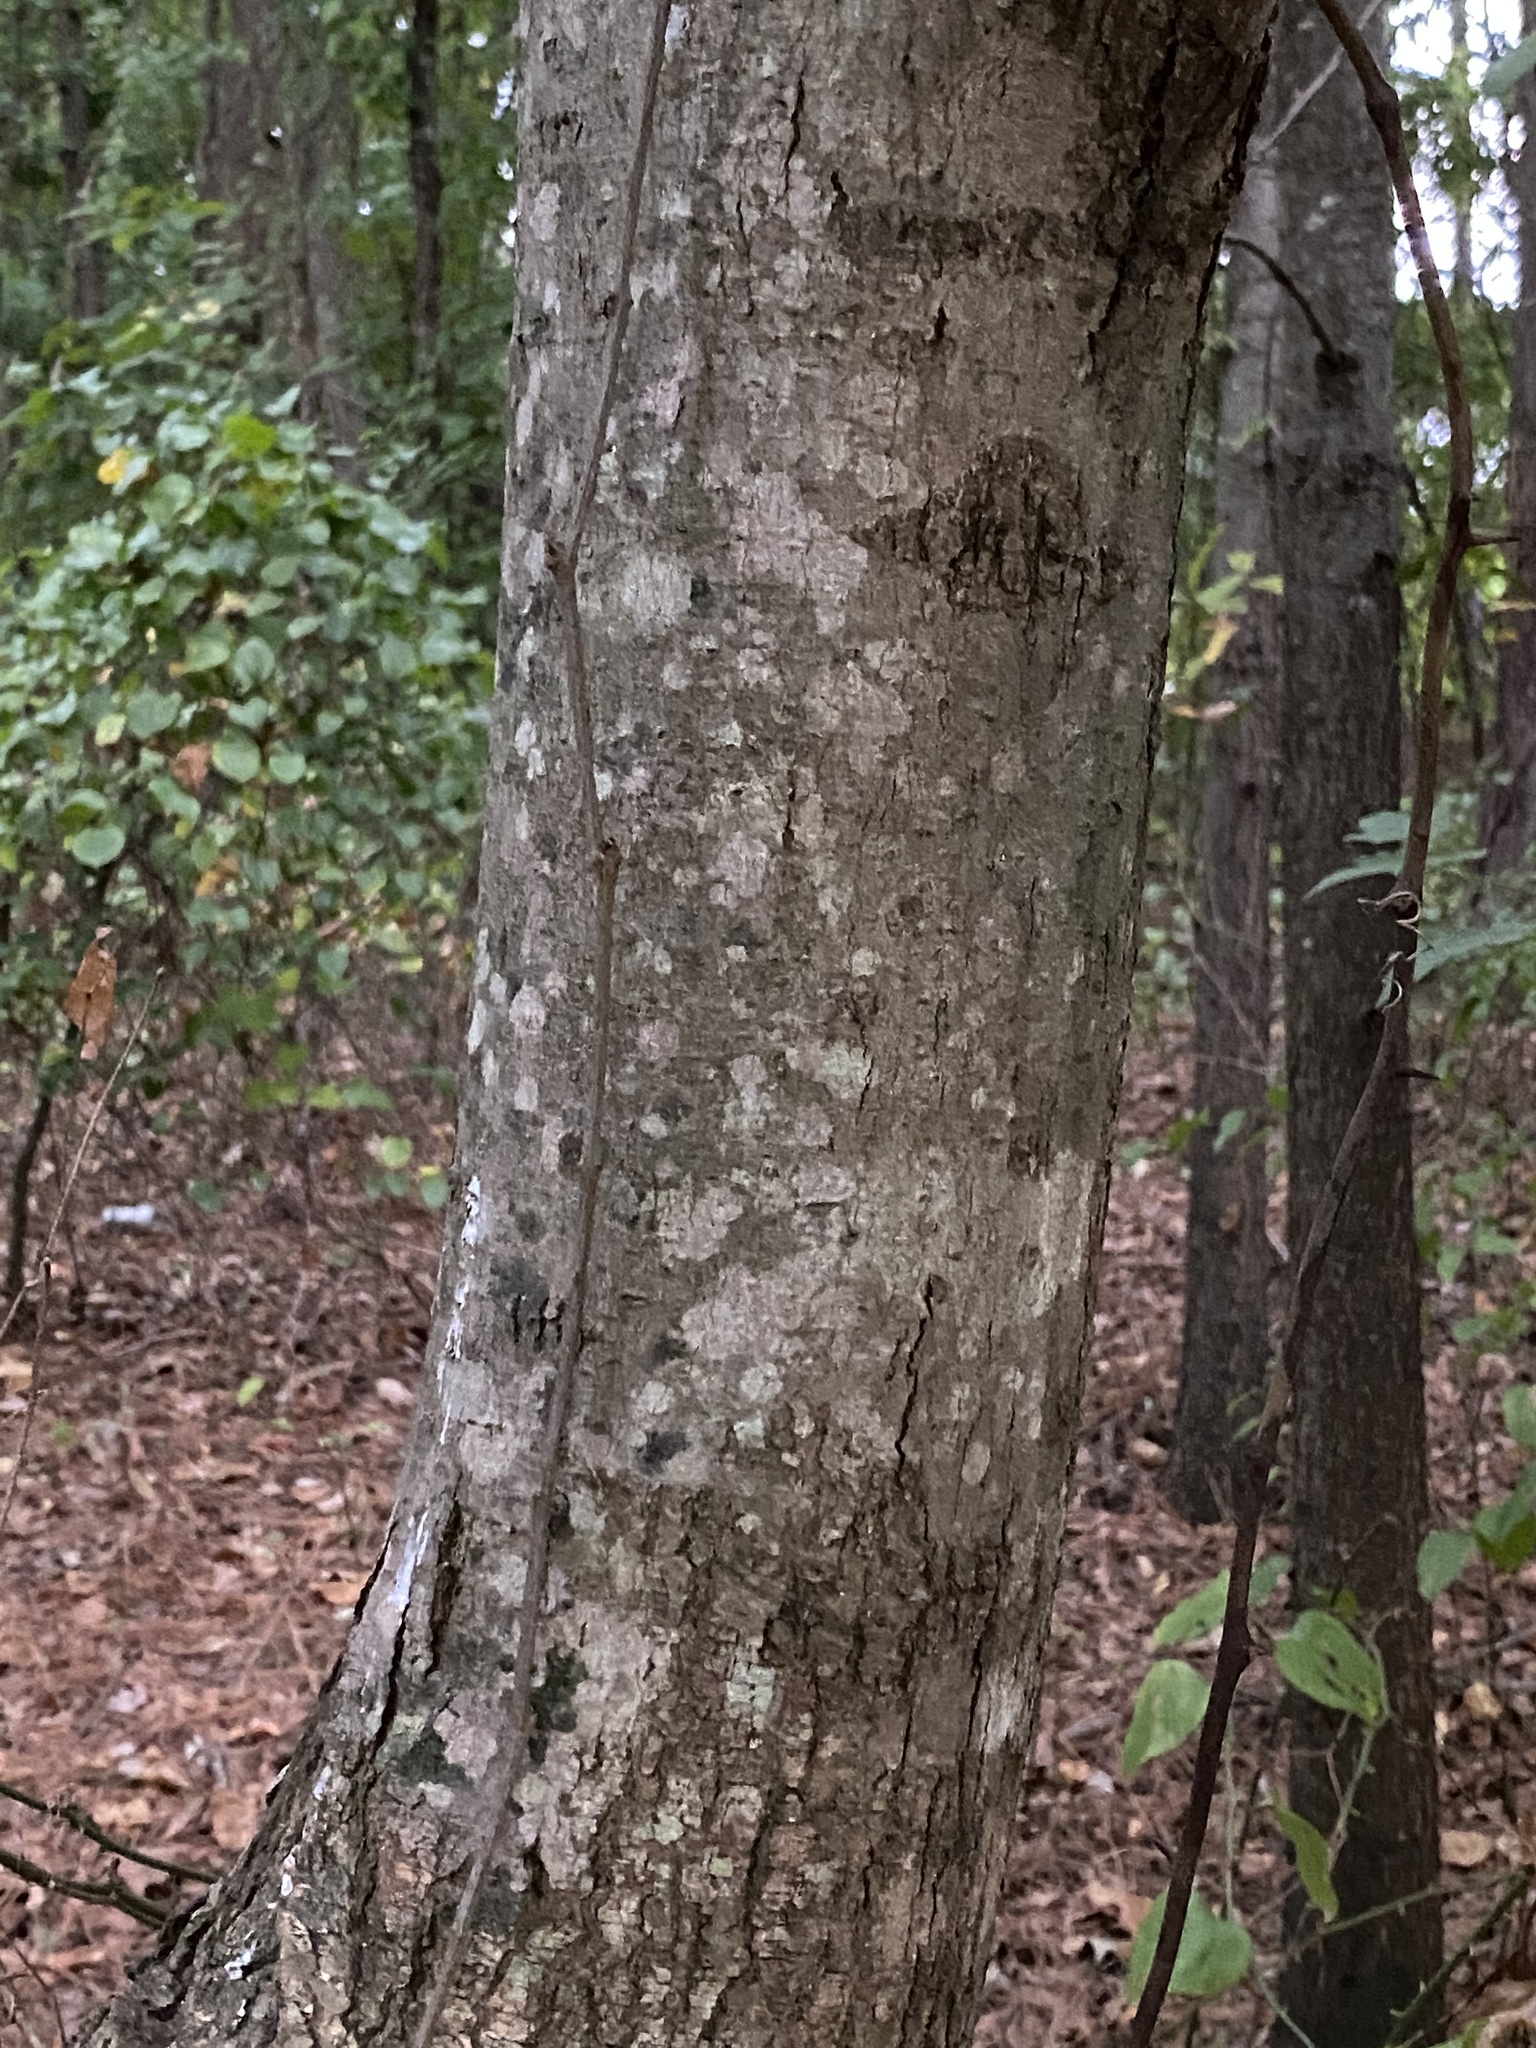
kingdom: Plantae
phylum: Tracheophyta
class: Magnoliopsida
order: Sapindales
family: Sapindaceae
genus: Acer
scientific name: Acer rubrum
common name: Red maple
